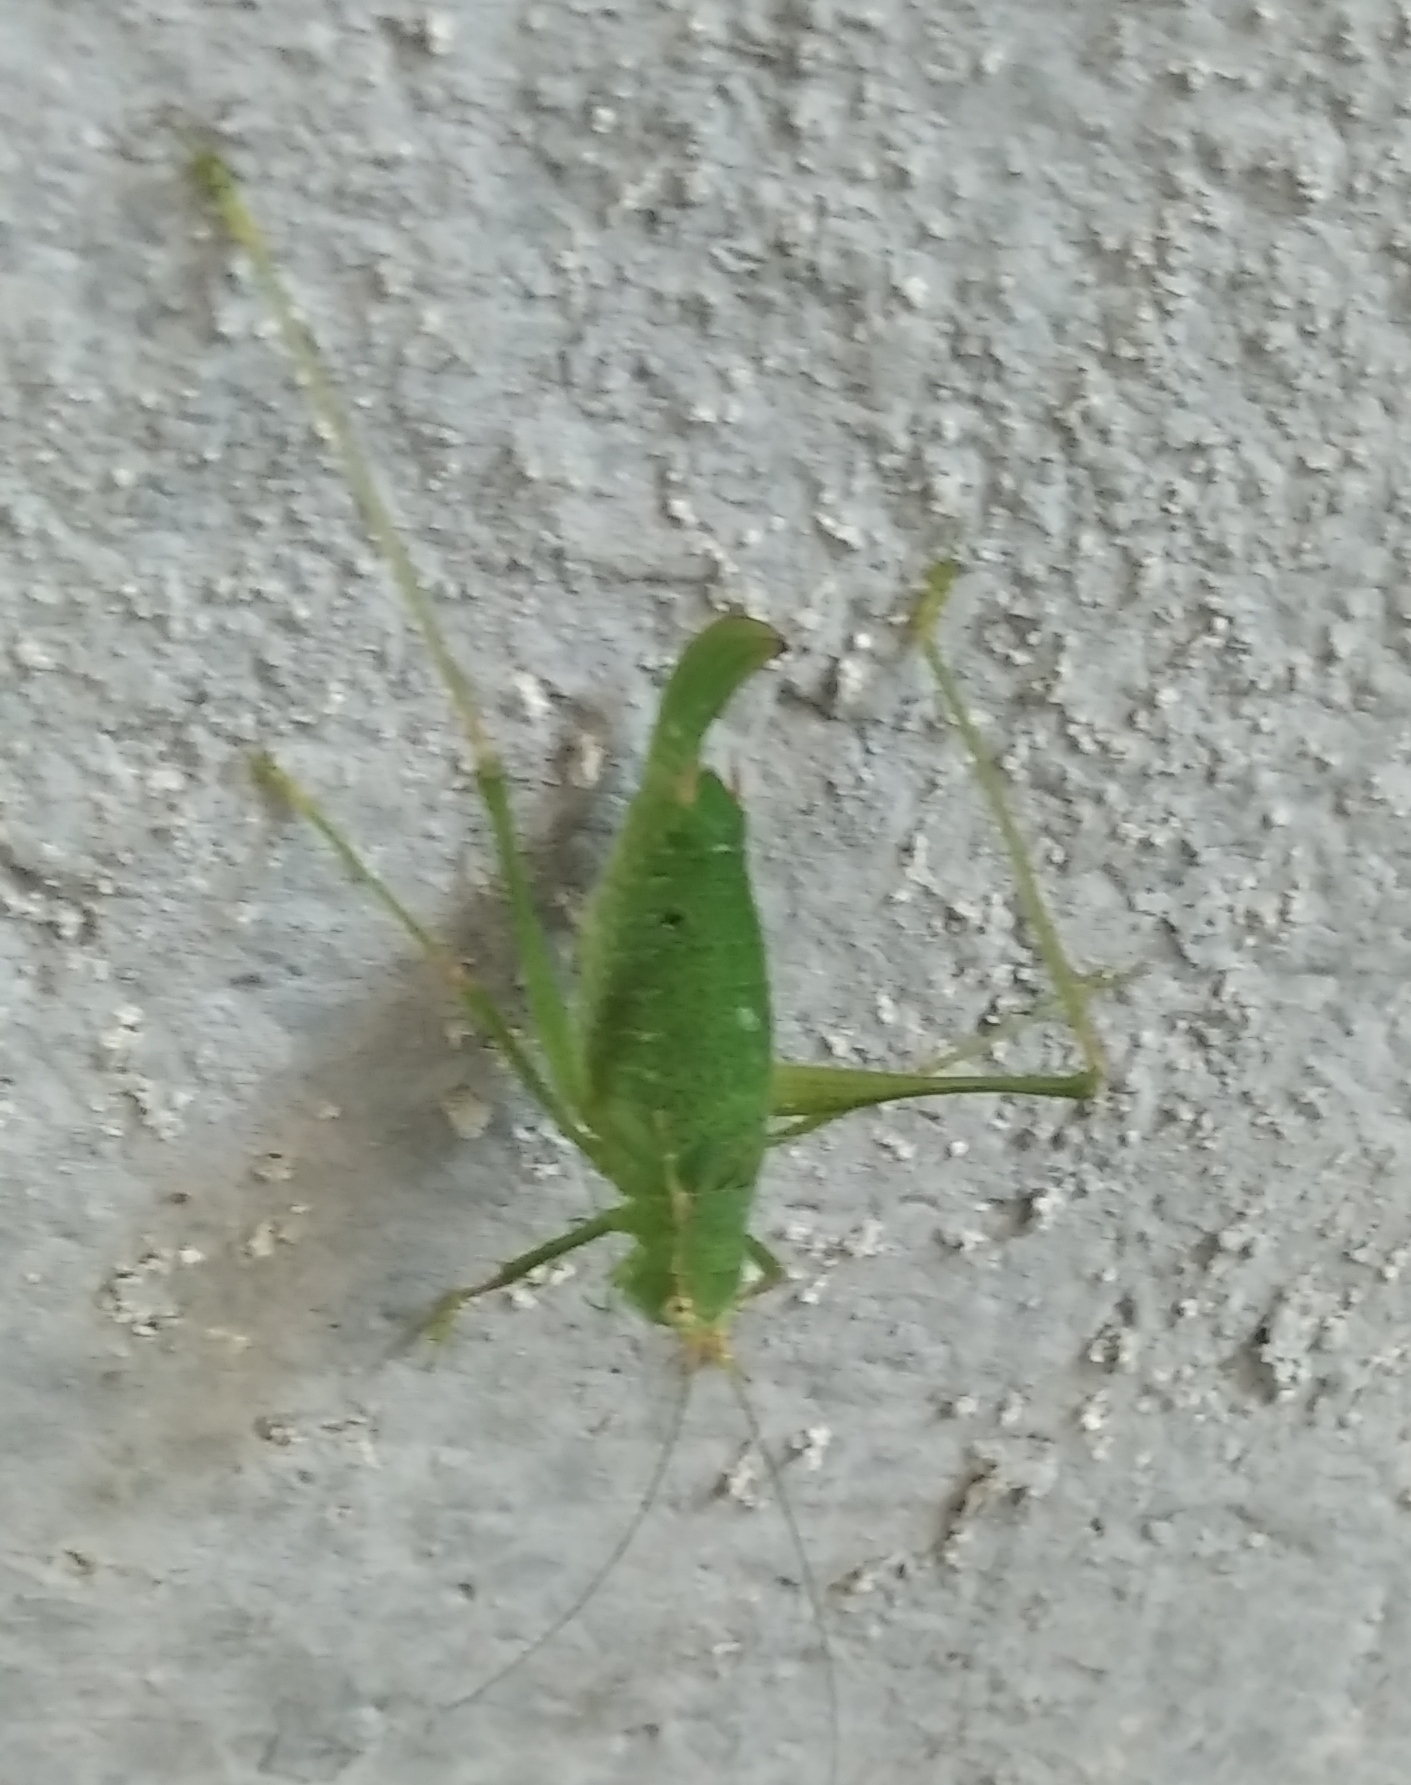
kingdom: Animalia
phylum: Arthropoda
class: Insecta
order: Orthoptera
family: Tettigoniidae
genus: Leptophyes
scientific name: Leptophyes punctatissima
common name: Speckled bush-cricket
